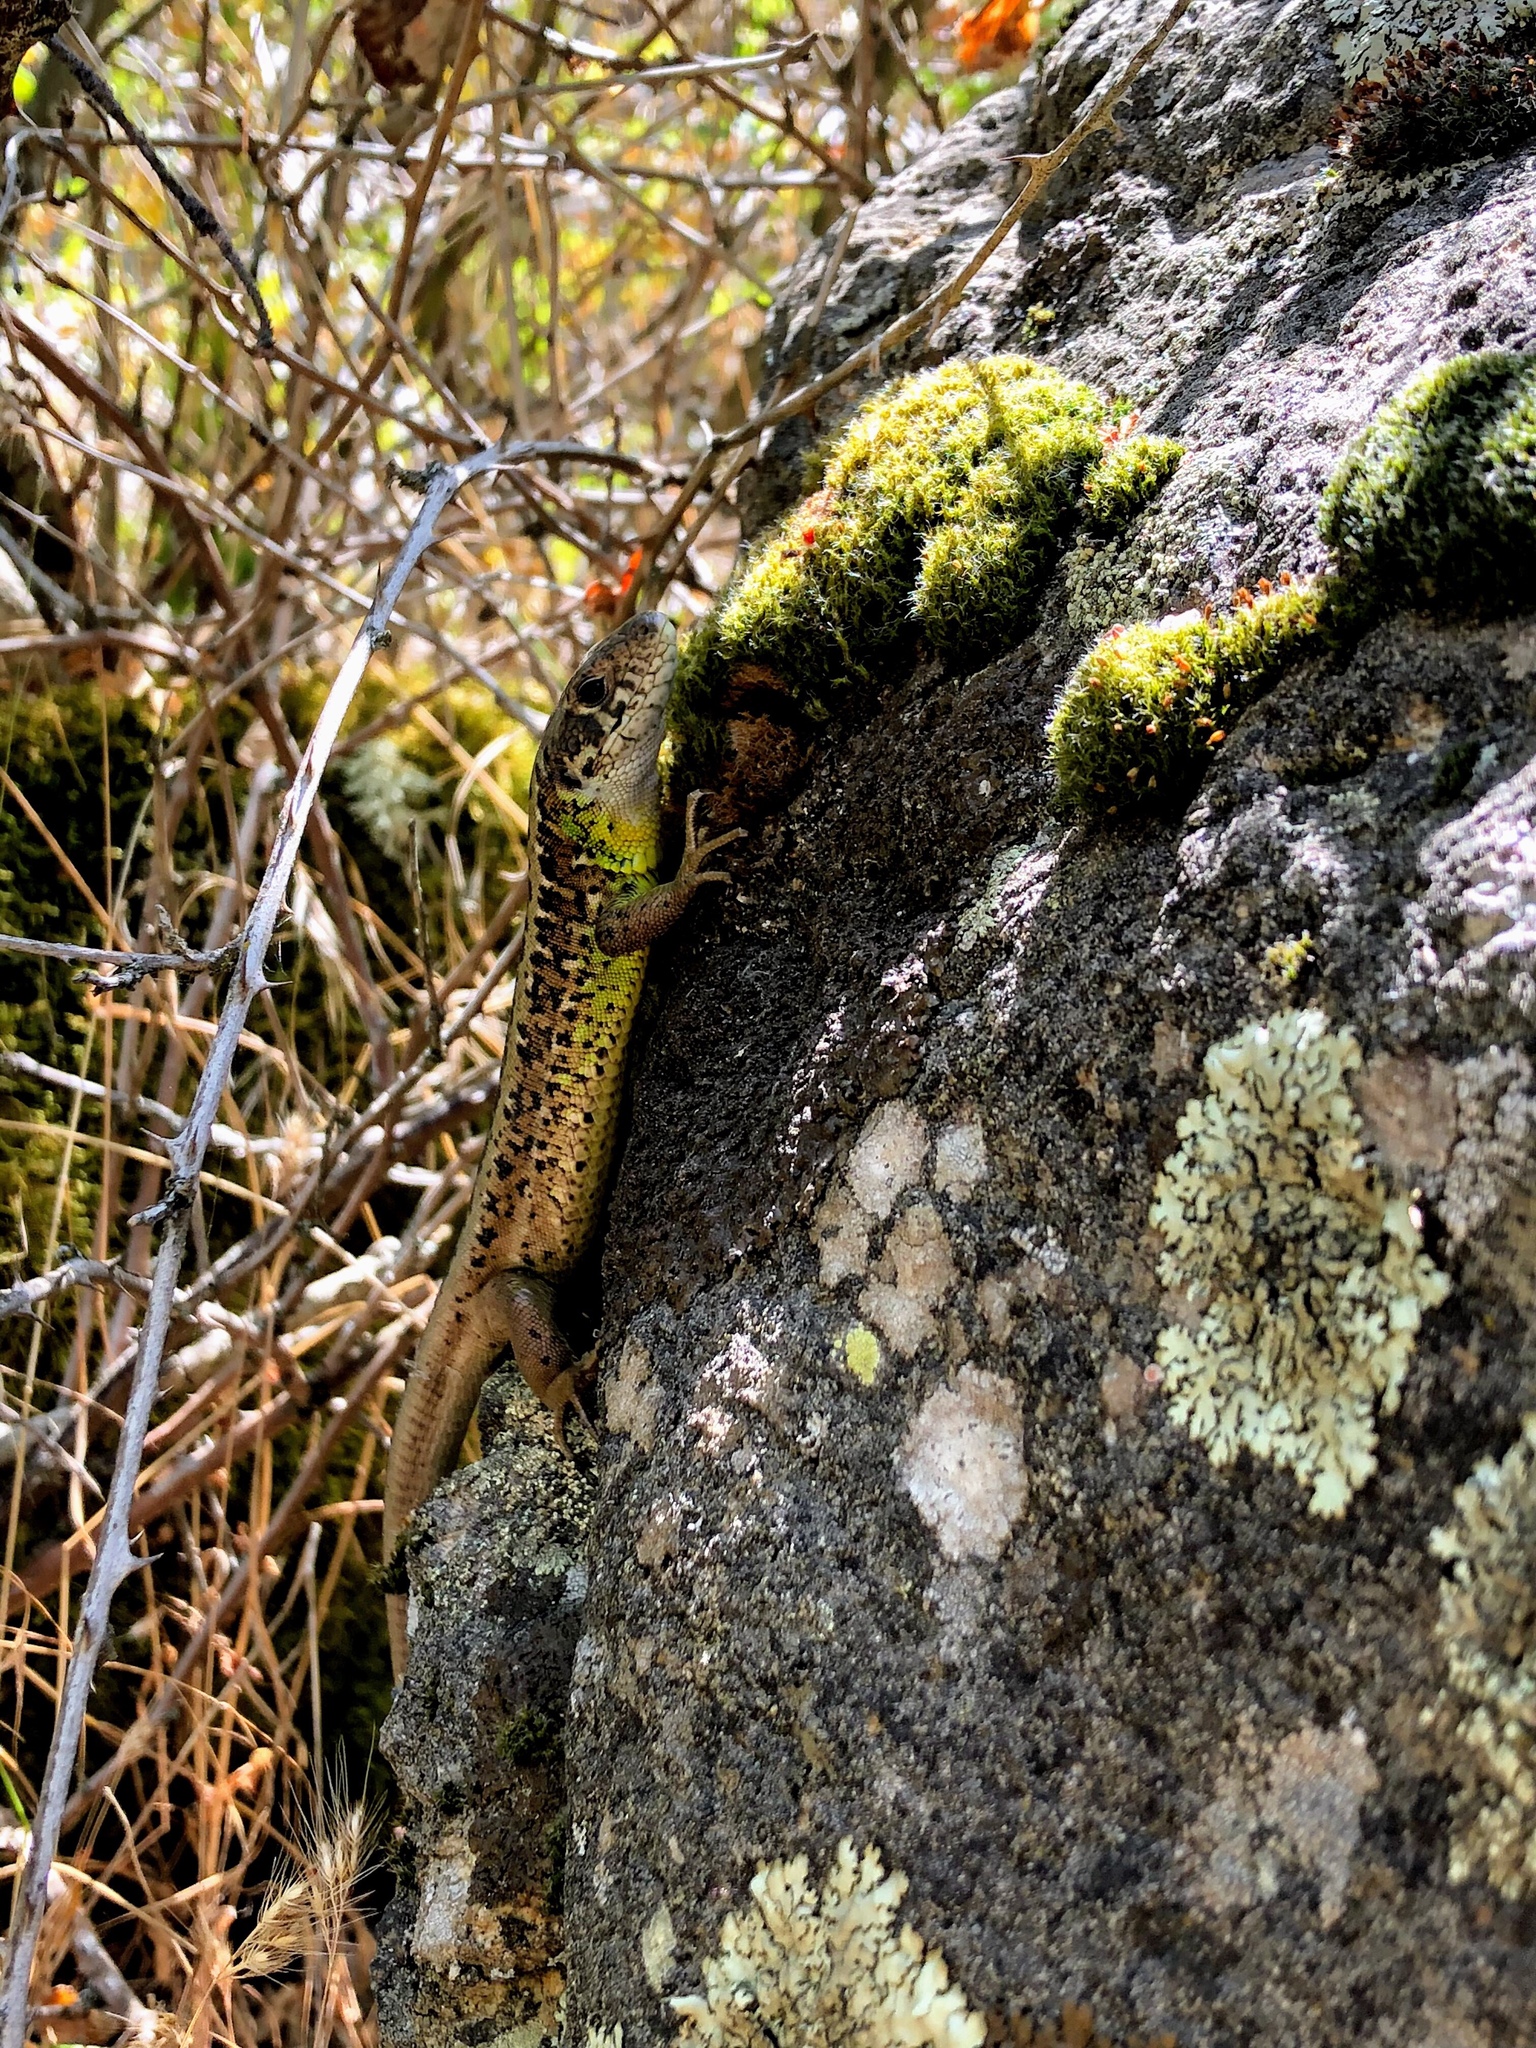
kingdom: Animalia
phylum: Chordata
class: Squamata
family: Lacertidae
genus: Lacerta
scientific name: Lacerta schreiberi
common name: Iberian emerald lizard
